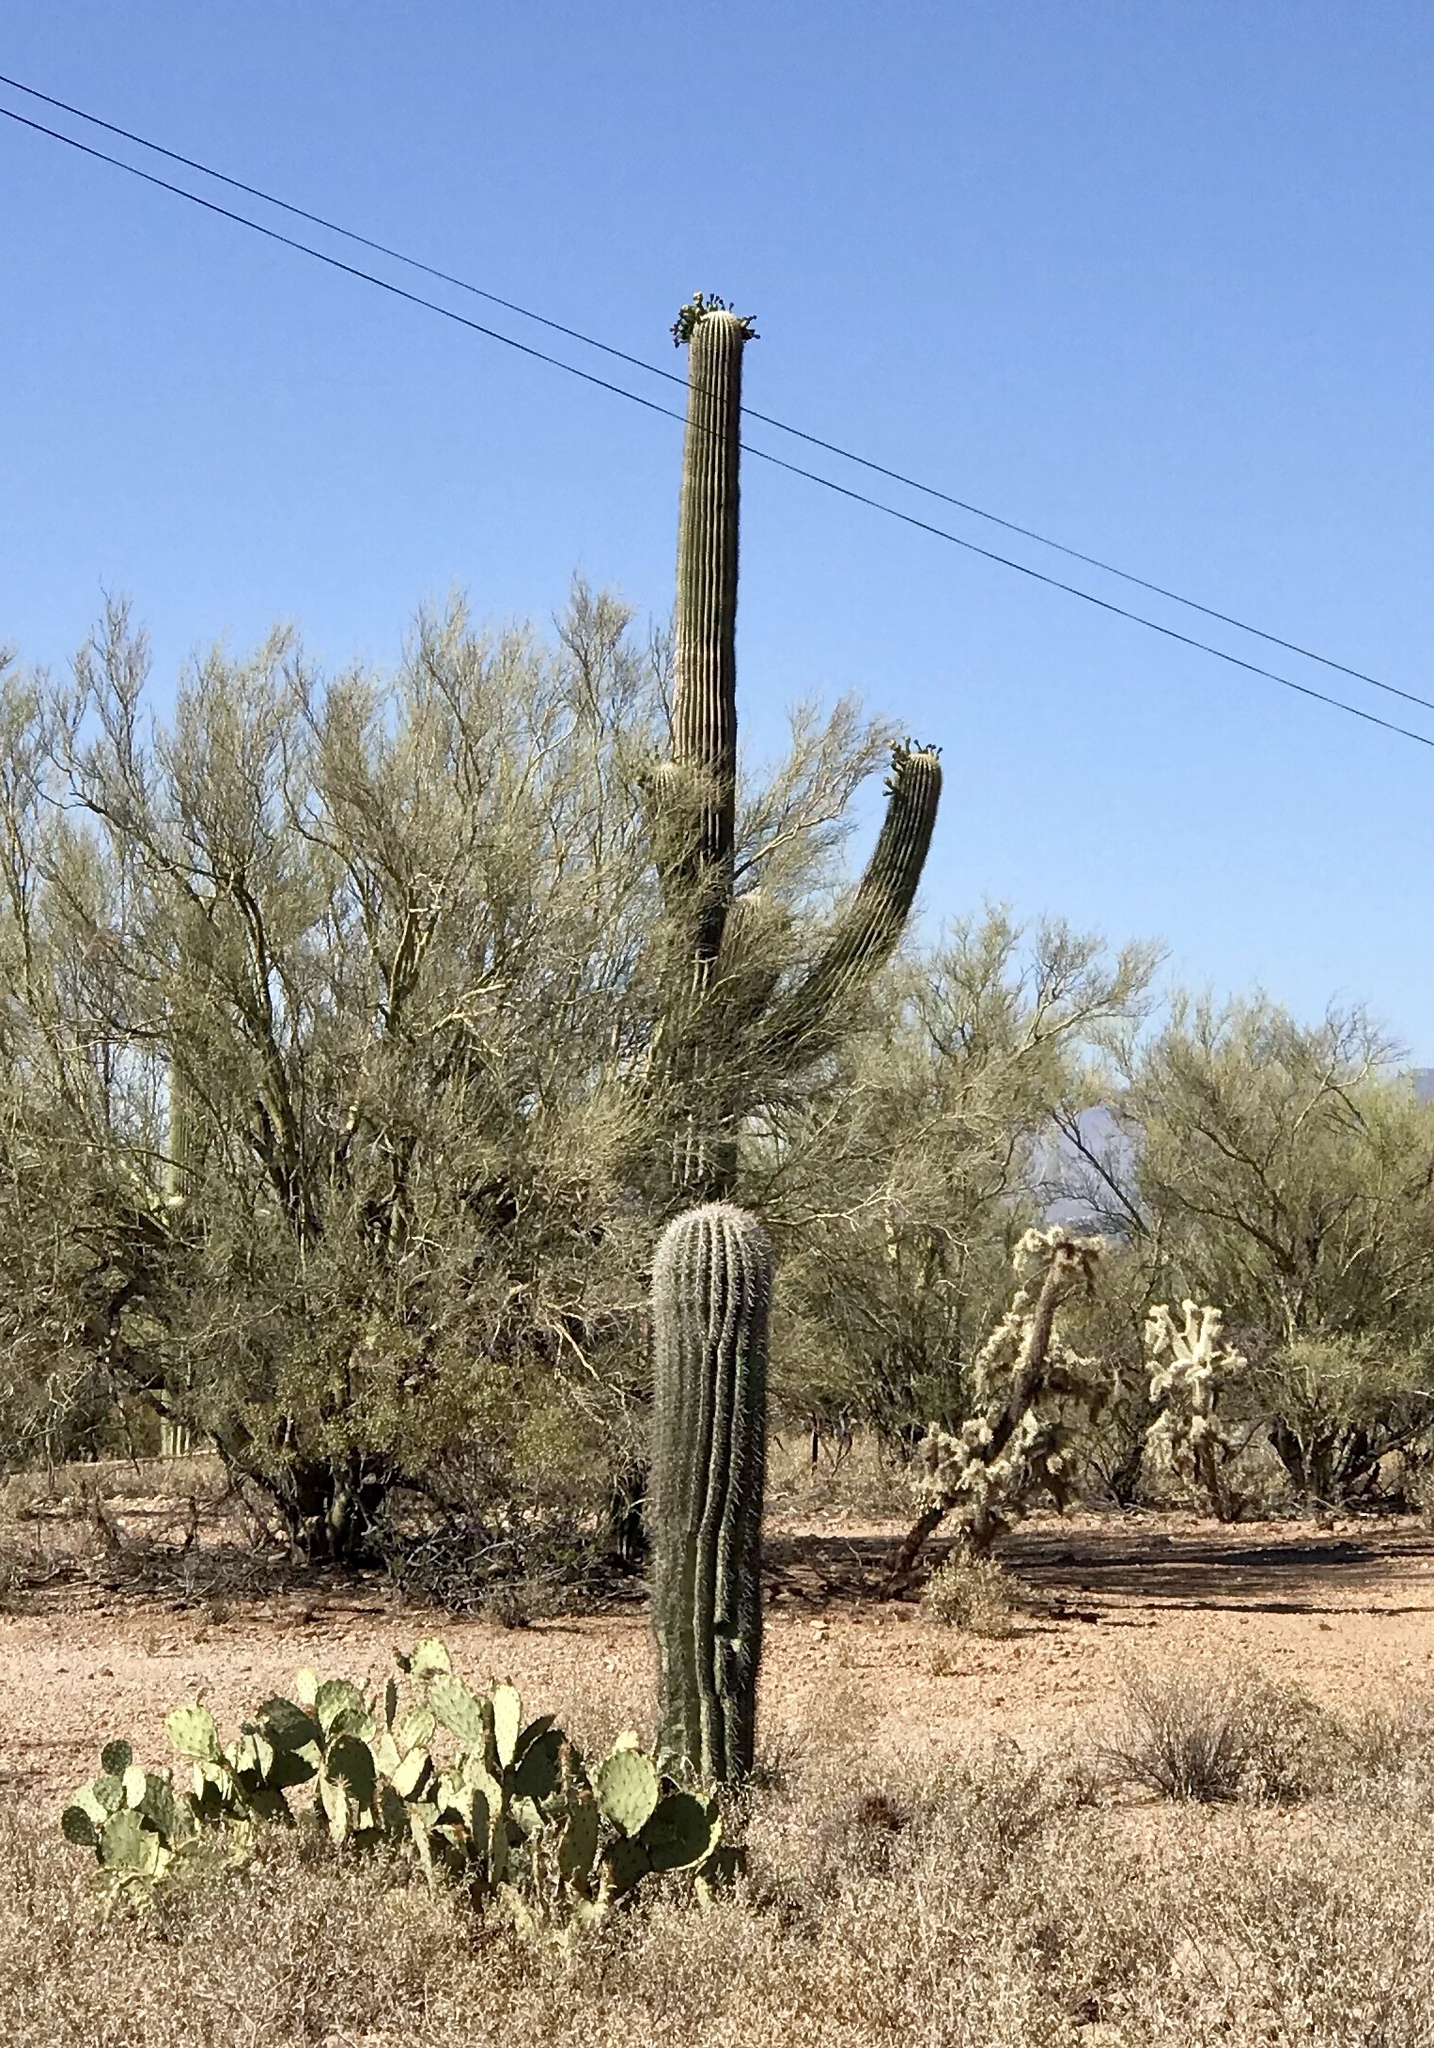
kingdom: Plantae
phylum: Tracheophyta
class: Magnoliopsida
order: Caryophyllales
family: Cactaceae
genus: Carnegiea
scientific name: Carnegiea gigantea
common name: Saguaro
